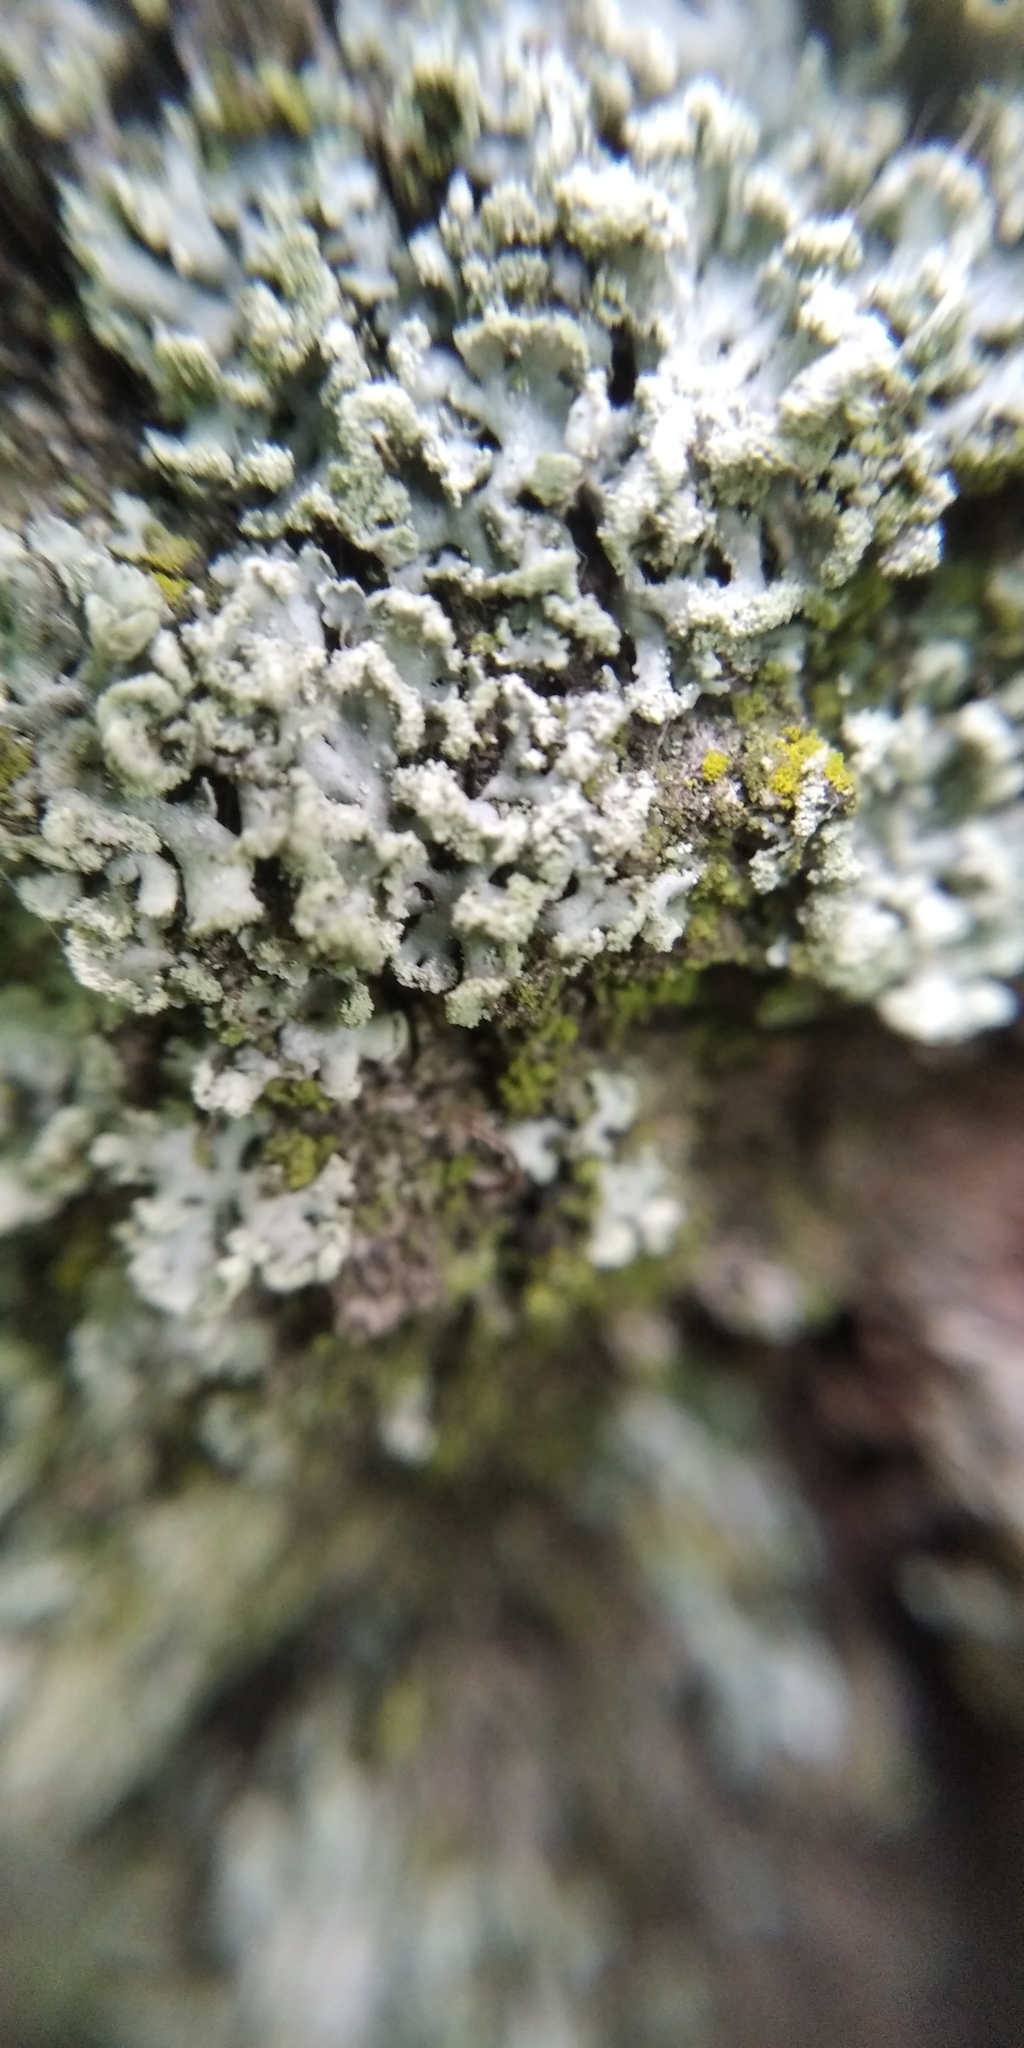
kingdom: Fungi
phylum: Ascomycota
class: Lecanoromycetes
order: Caliciales
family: Physciaceae
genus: Physcia
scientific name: Physcia tenella
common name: Fringed rosette lichen
